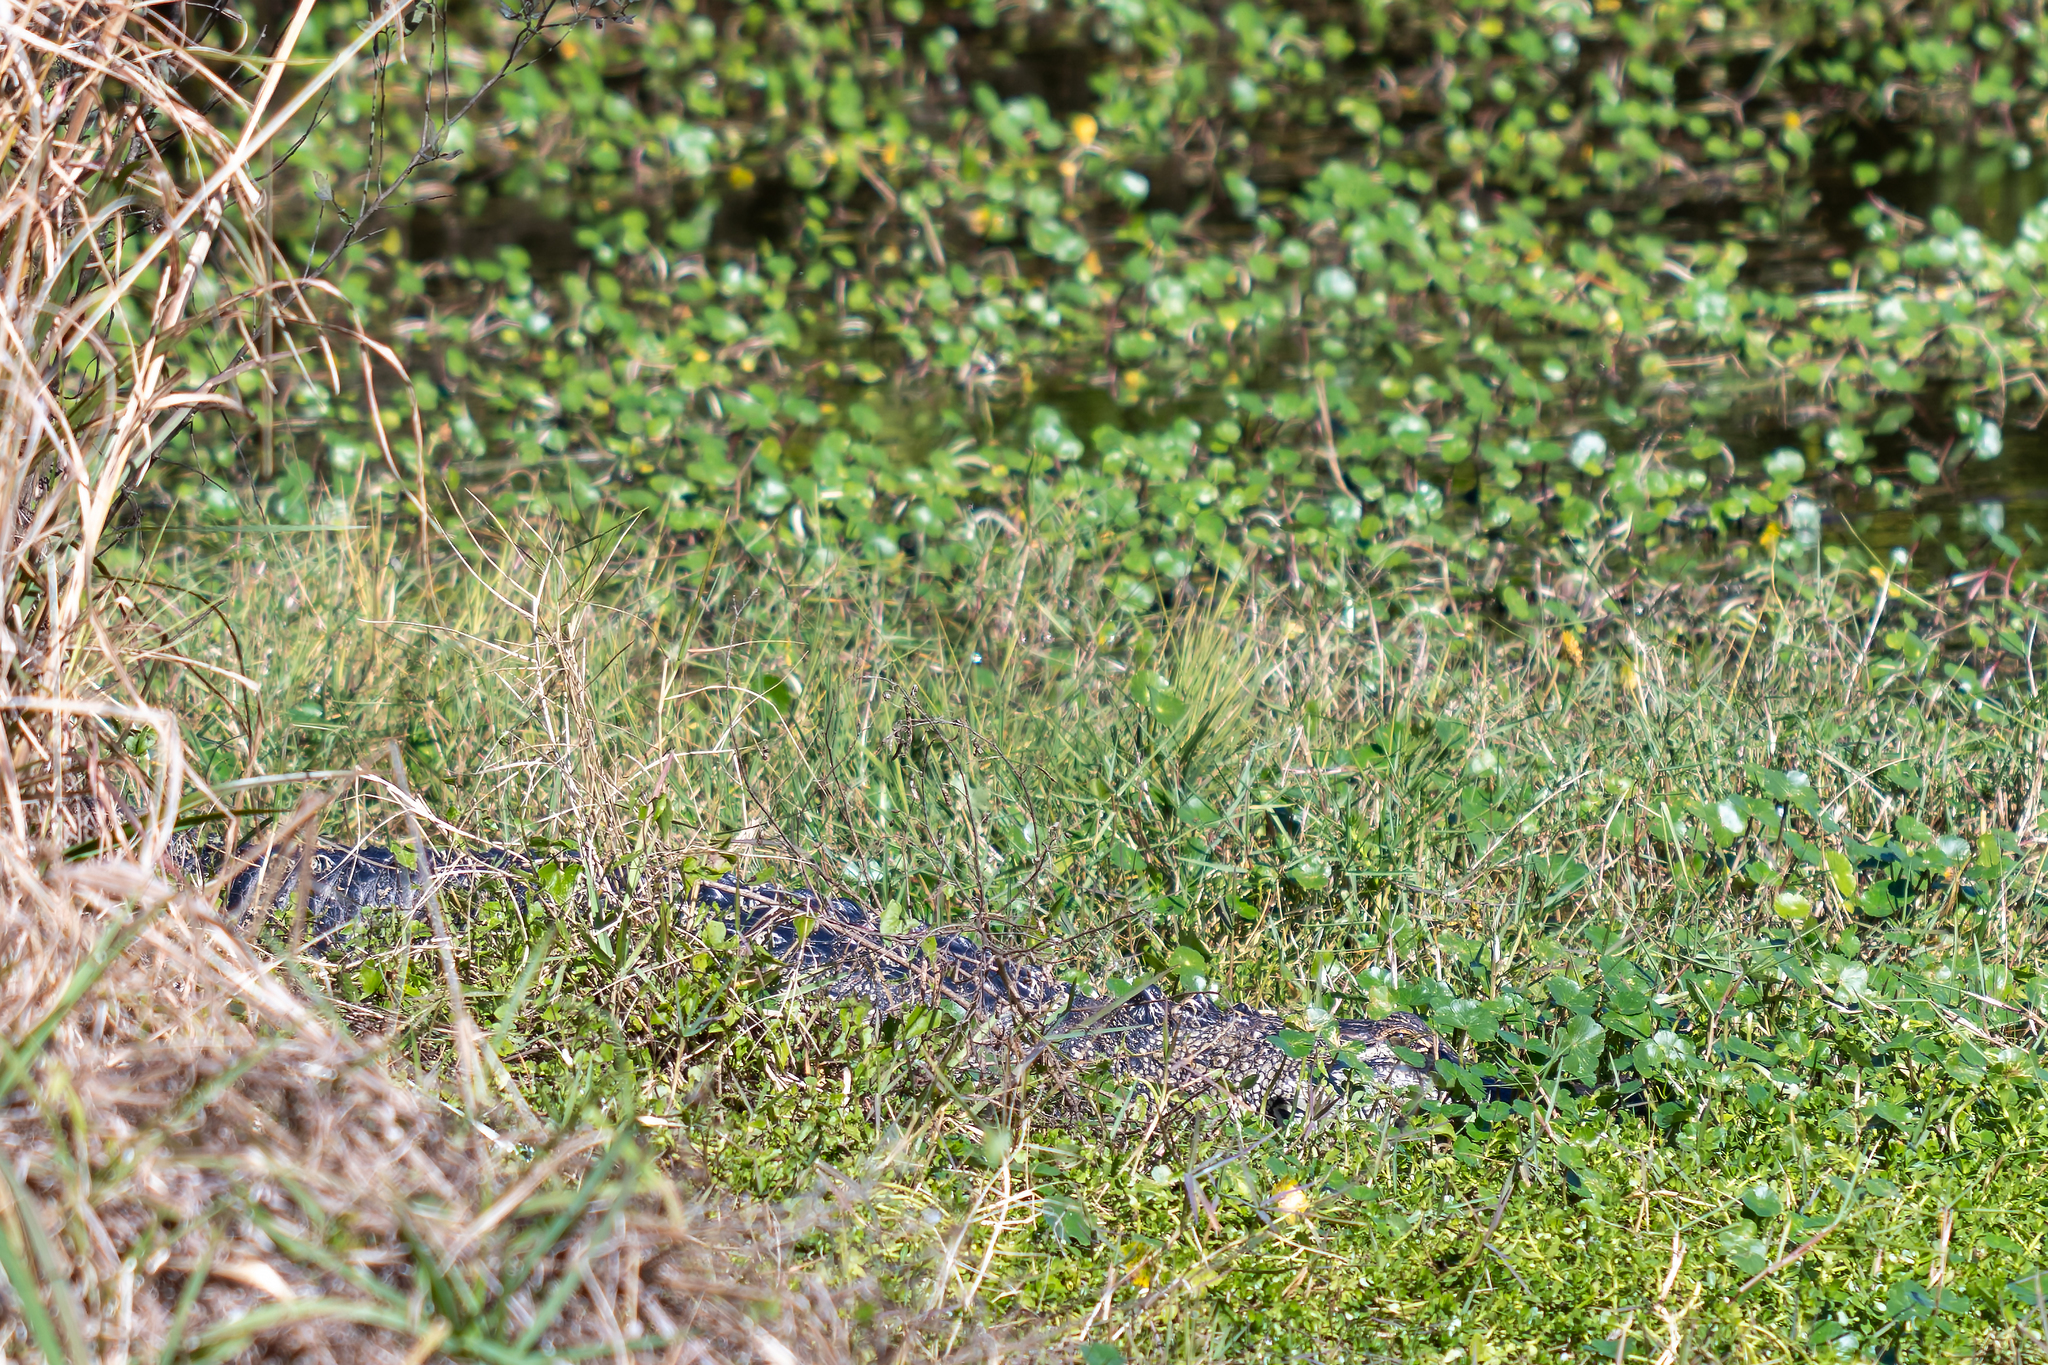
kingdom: Animalia
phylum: Chordata
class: Crocodylia
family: Alligatoridae
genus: Alligator
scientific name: Alligator mississippiensis
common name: American alligator
